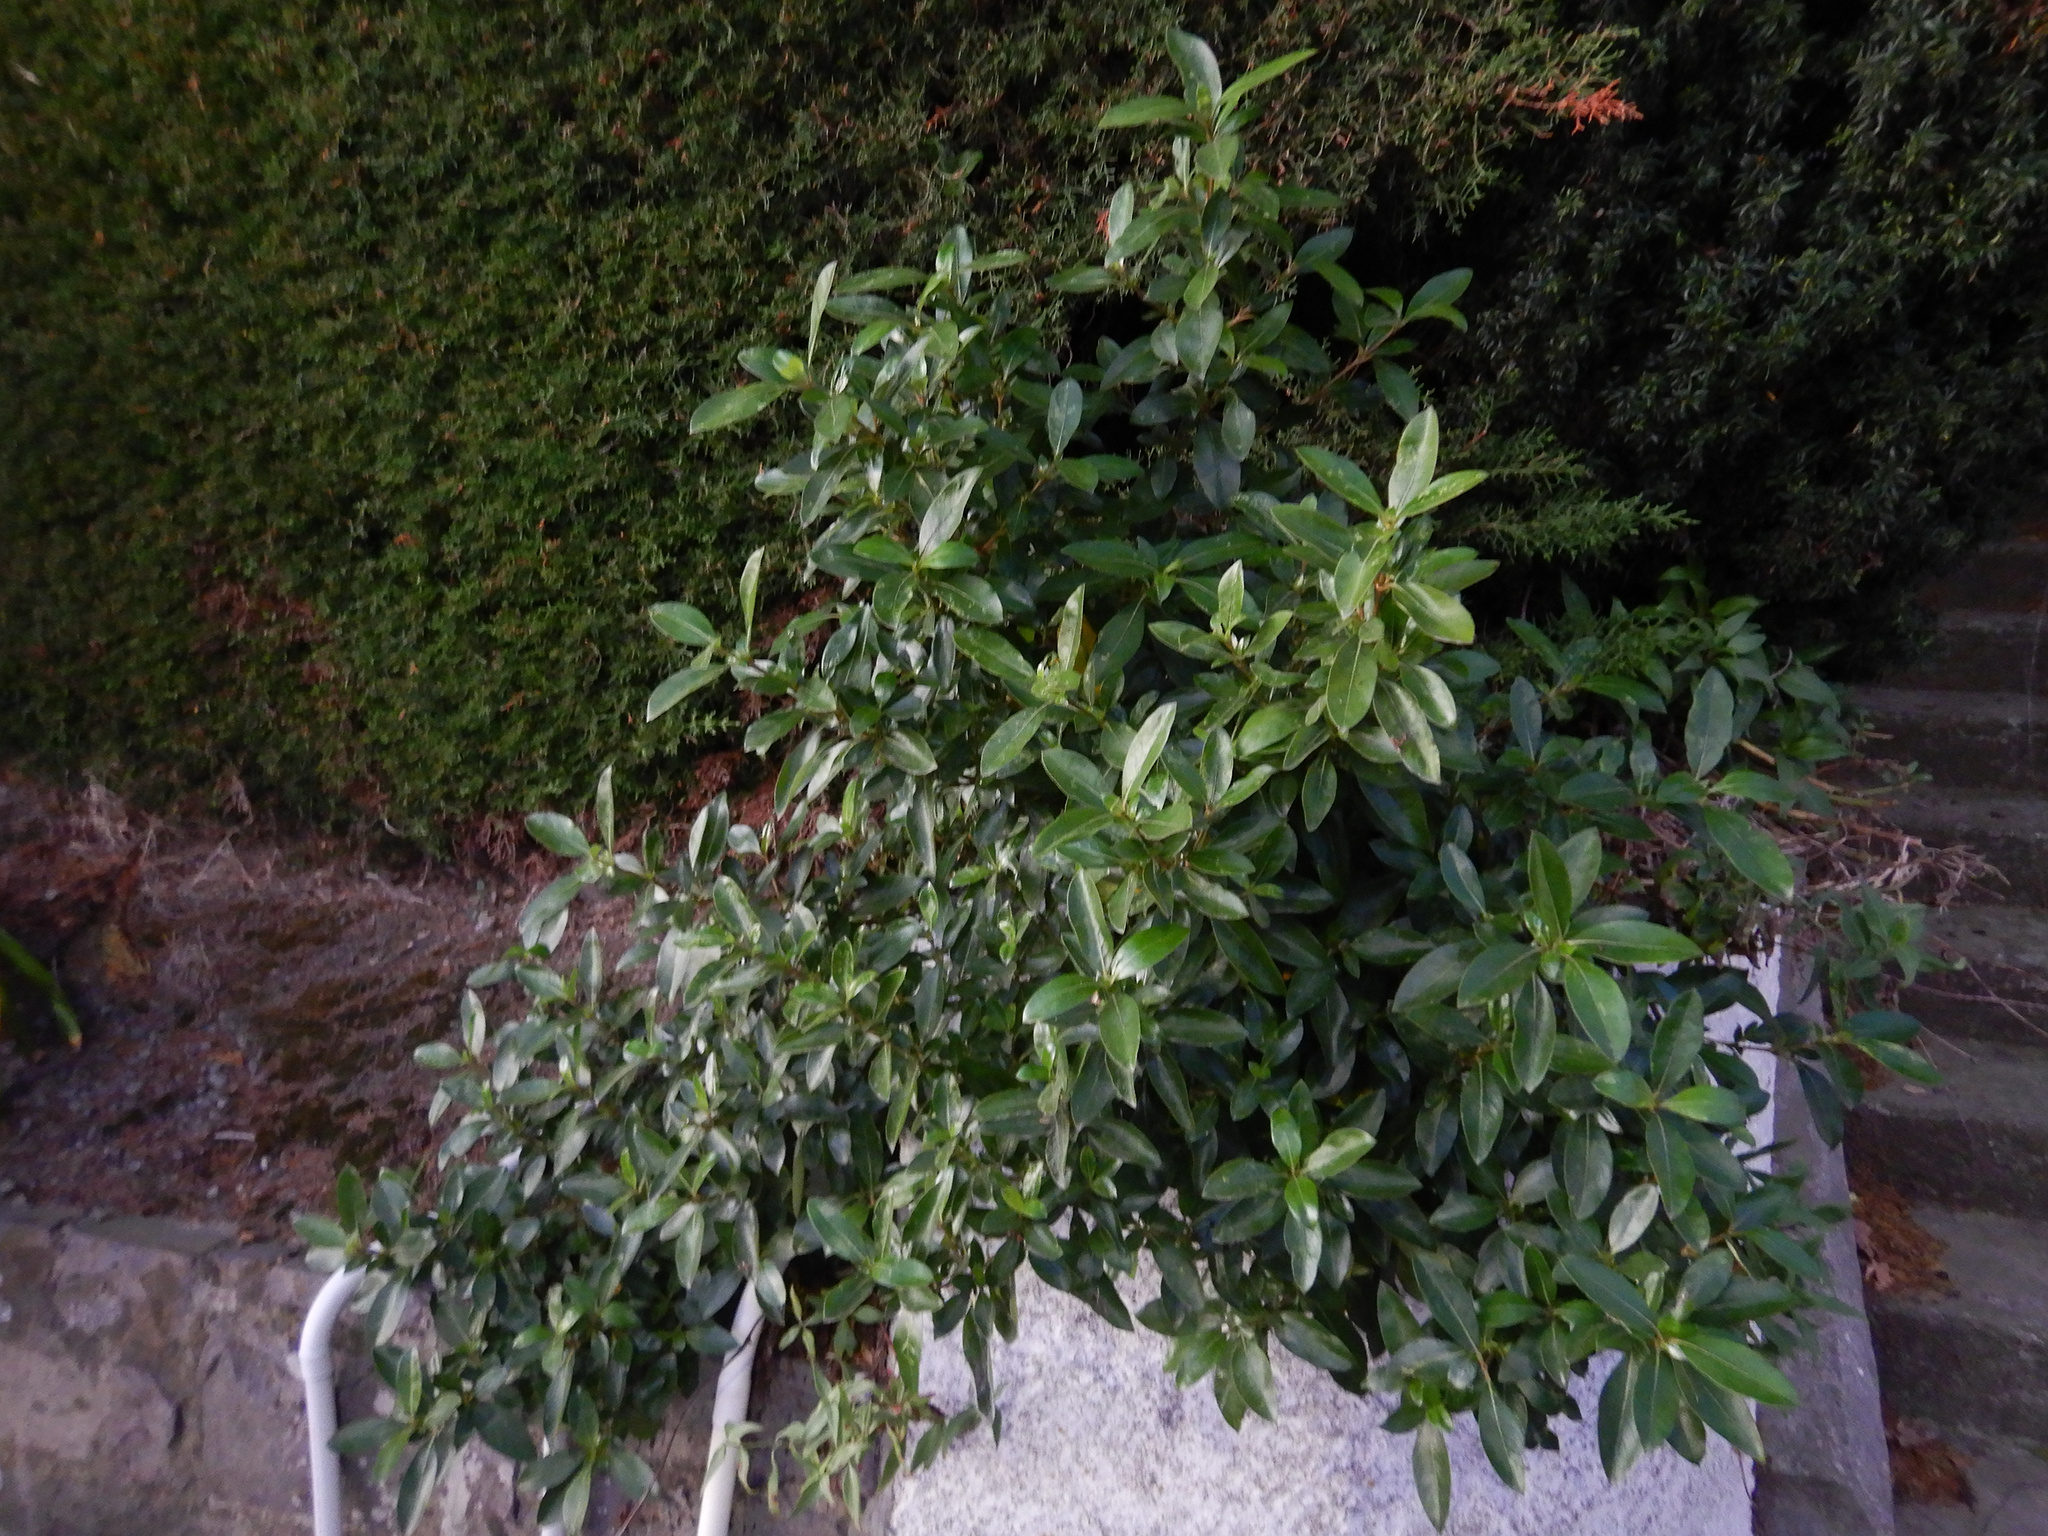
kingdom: Plantae
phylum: Tracheophyta
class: Magnoliopsida
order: Gentianales
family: Rubiaceae
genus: Coprosma
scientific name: Coprosma robusta
